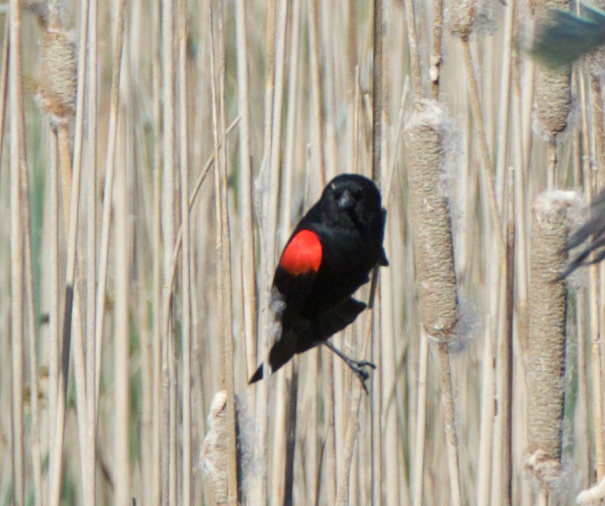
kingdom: Animalia
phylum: Chordata
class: Aves
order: Passeriformes
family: Icteridae
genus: Agelaius
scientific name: Agelaius phoeniceus
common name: Red-winged blackbird
